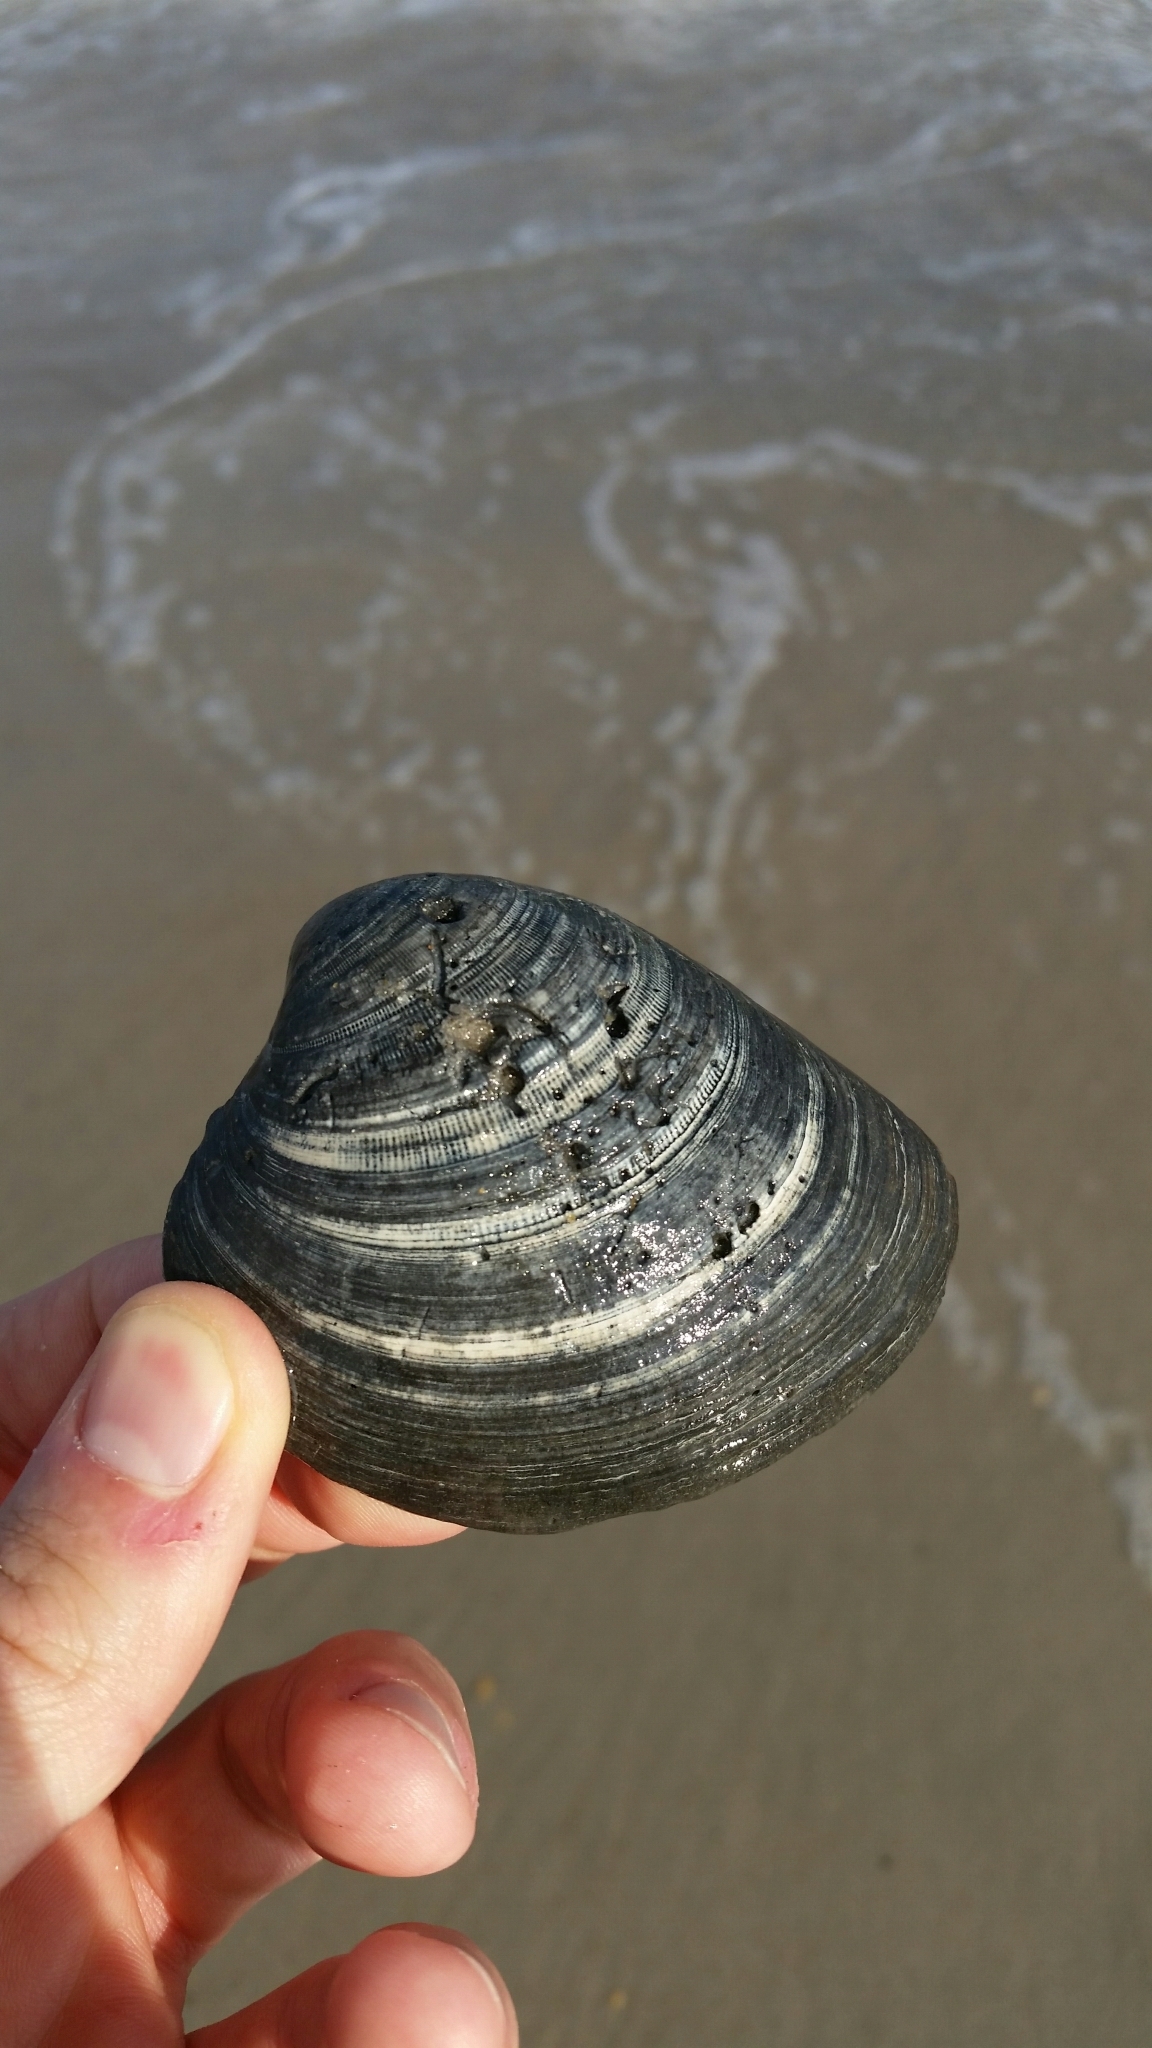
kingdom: Animalia
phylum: Mollusca
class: Bivalvia
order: Venerida
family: Veneridae
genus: Mercenaria
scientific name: Mercenaria mercenaria
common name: American hard-shelled clam
